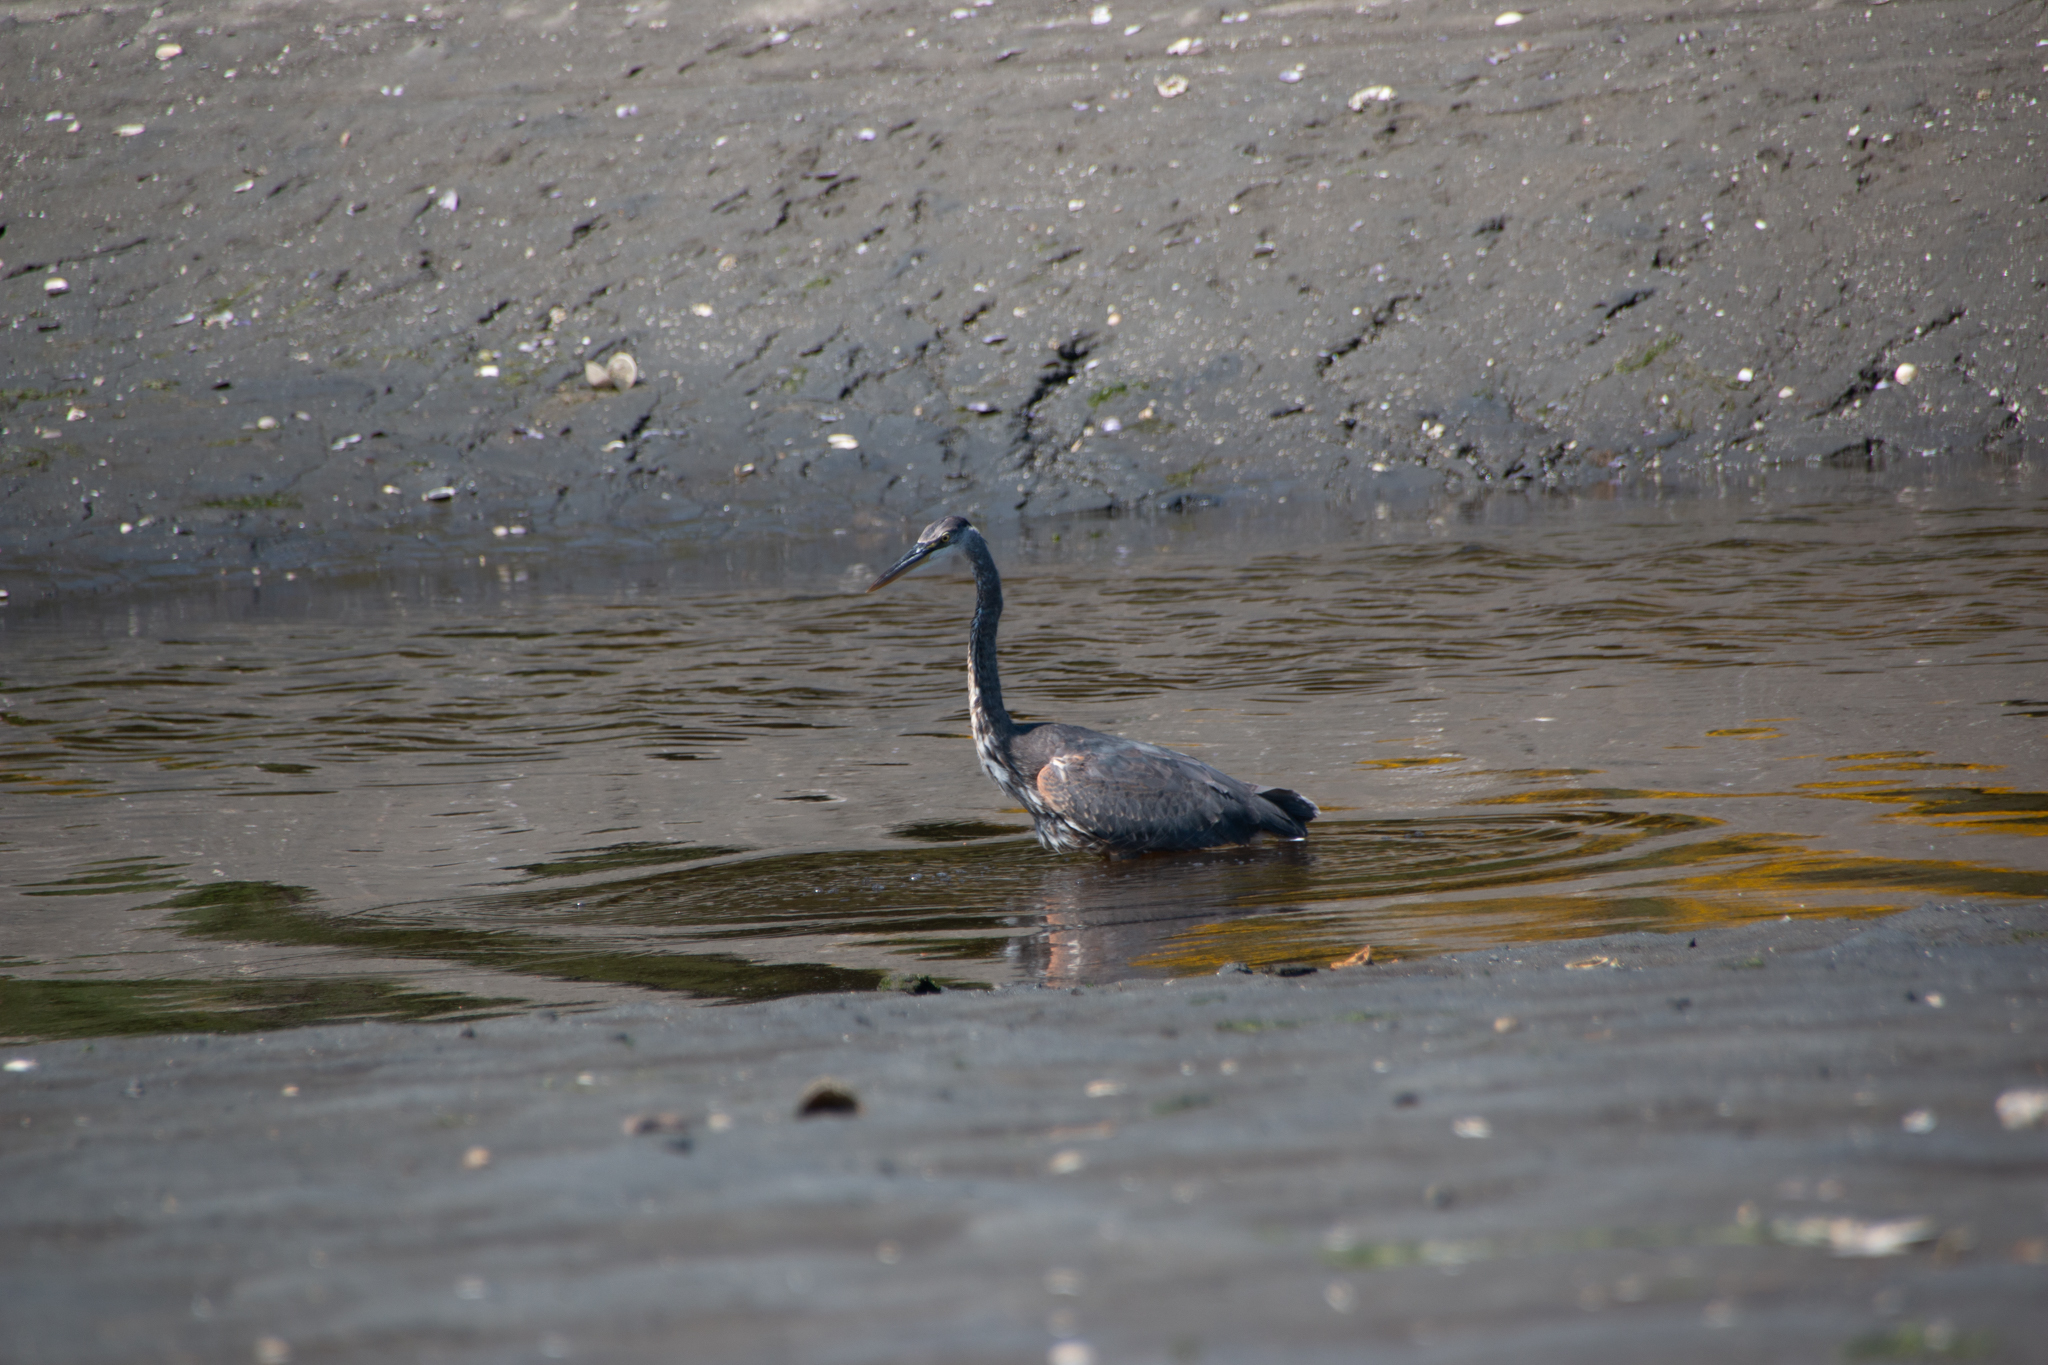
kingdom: Animalia
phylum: Chordata
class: Aves
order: Pelecaniformes
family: Ardeidae
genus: Ardea
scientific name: Ardea herodias
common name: Great blue heron
